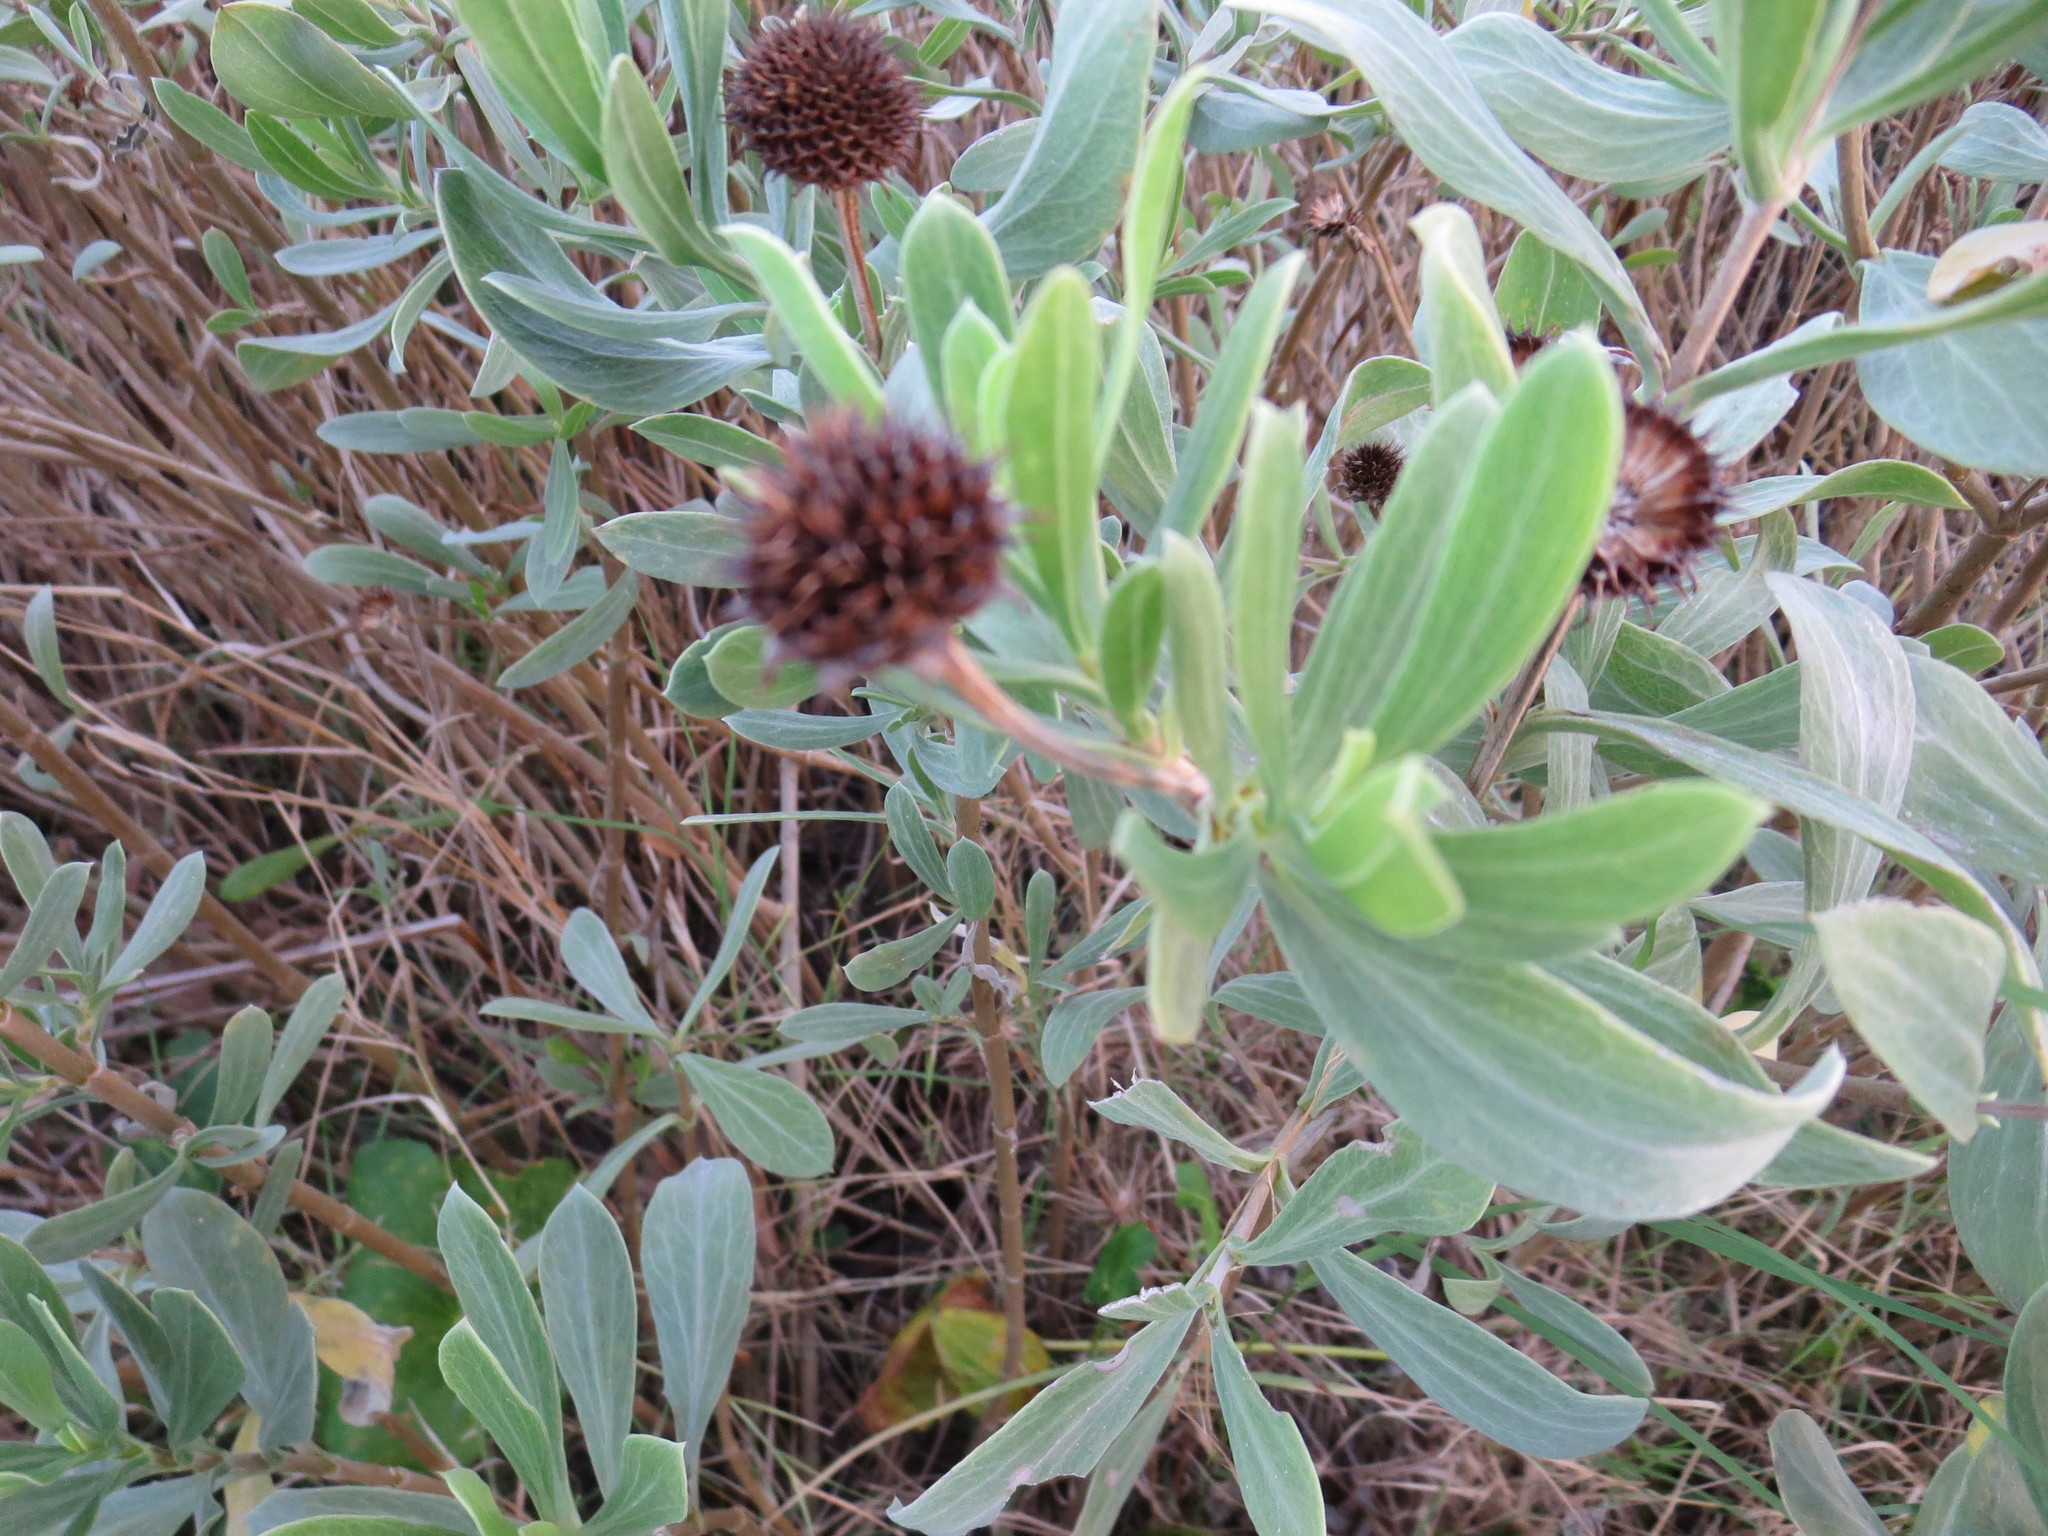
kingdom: Plantae
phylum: Tracheophyta
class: Magnoliopsida
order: Asterales
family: Asteraceae
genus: Borrichia
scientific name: Borrichia frutescens
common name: Sea oxeye
